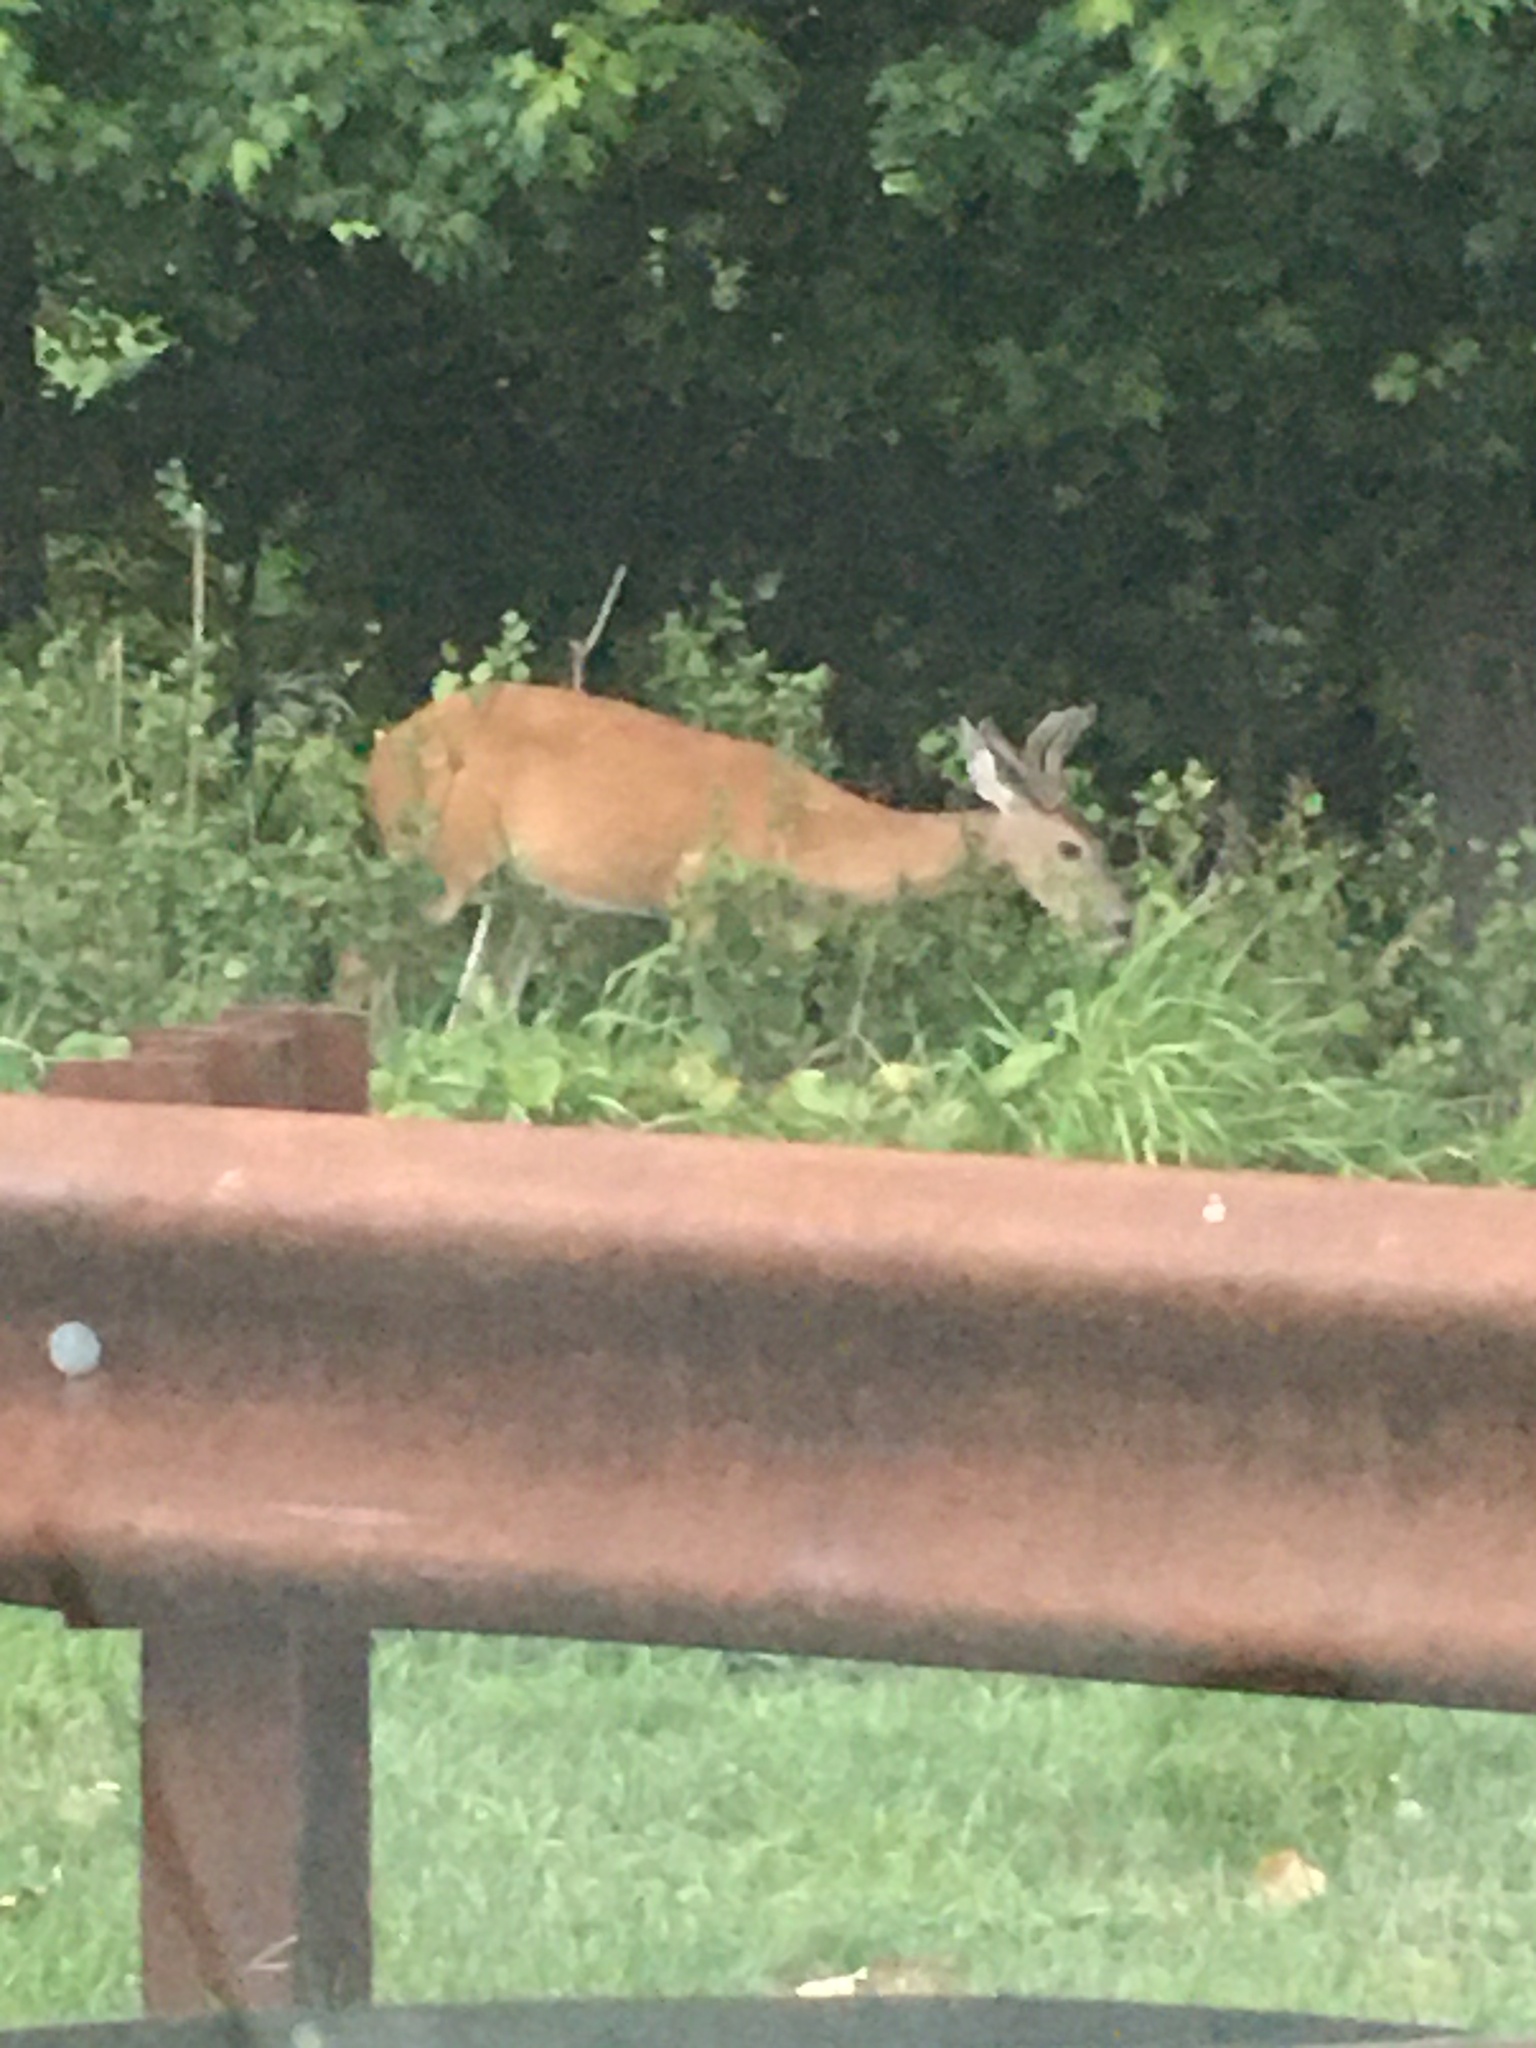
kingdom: Animalia
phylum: Chordata
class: Mammalia
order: Artiodactyla
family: Cervidae
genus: Odocoileus
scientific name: Odocoileus virginianus
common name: White-tailed deer
